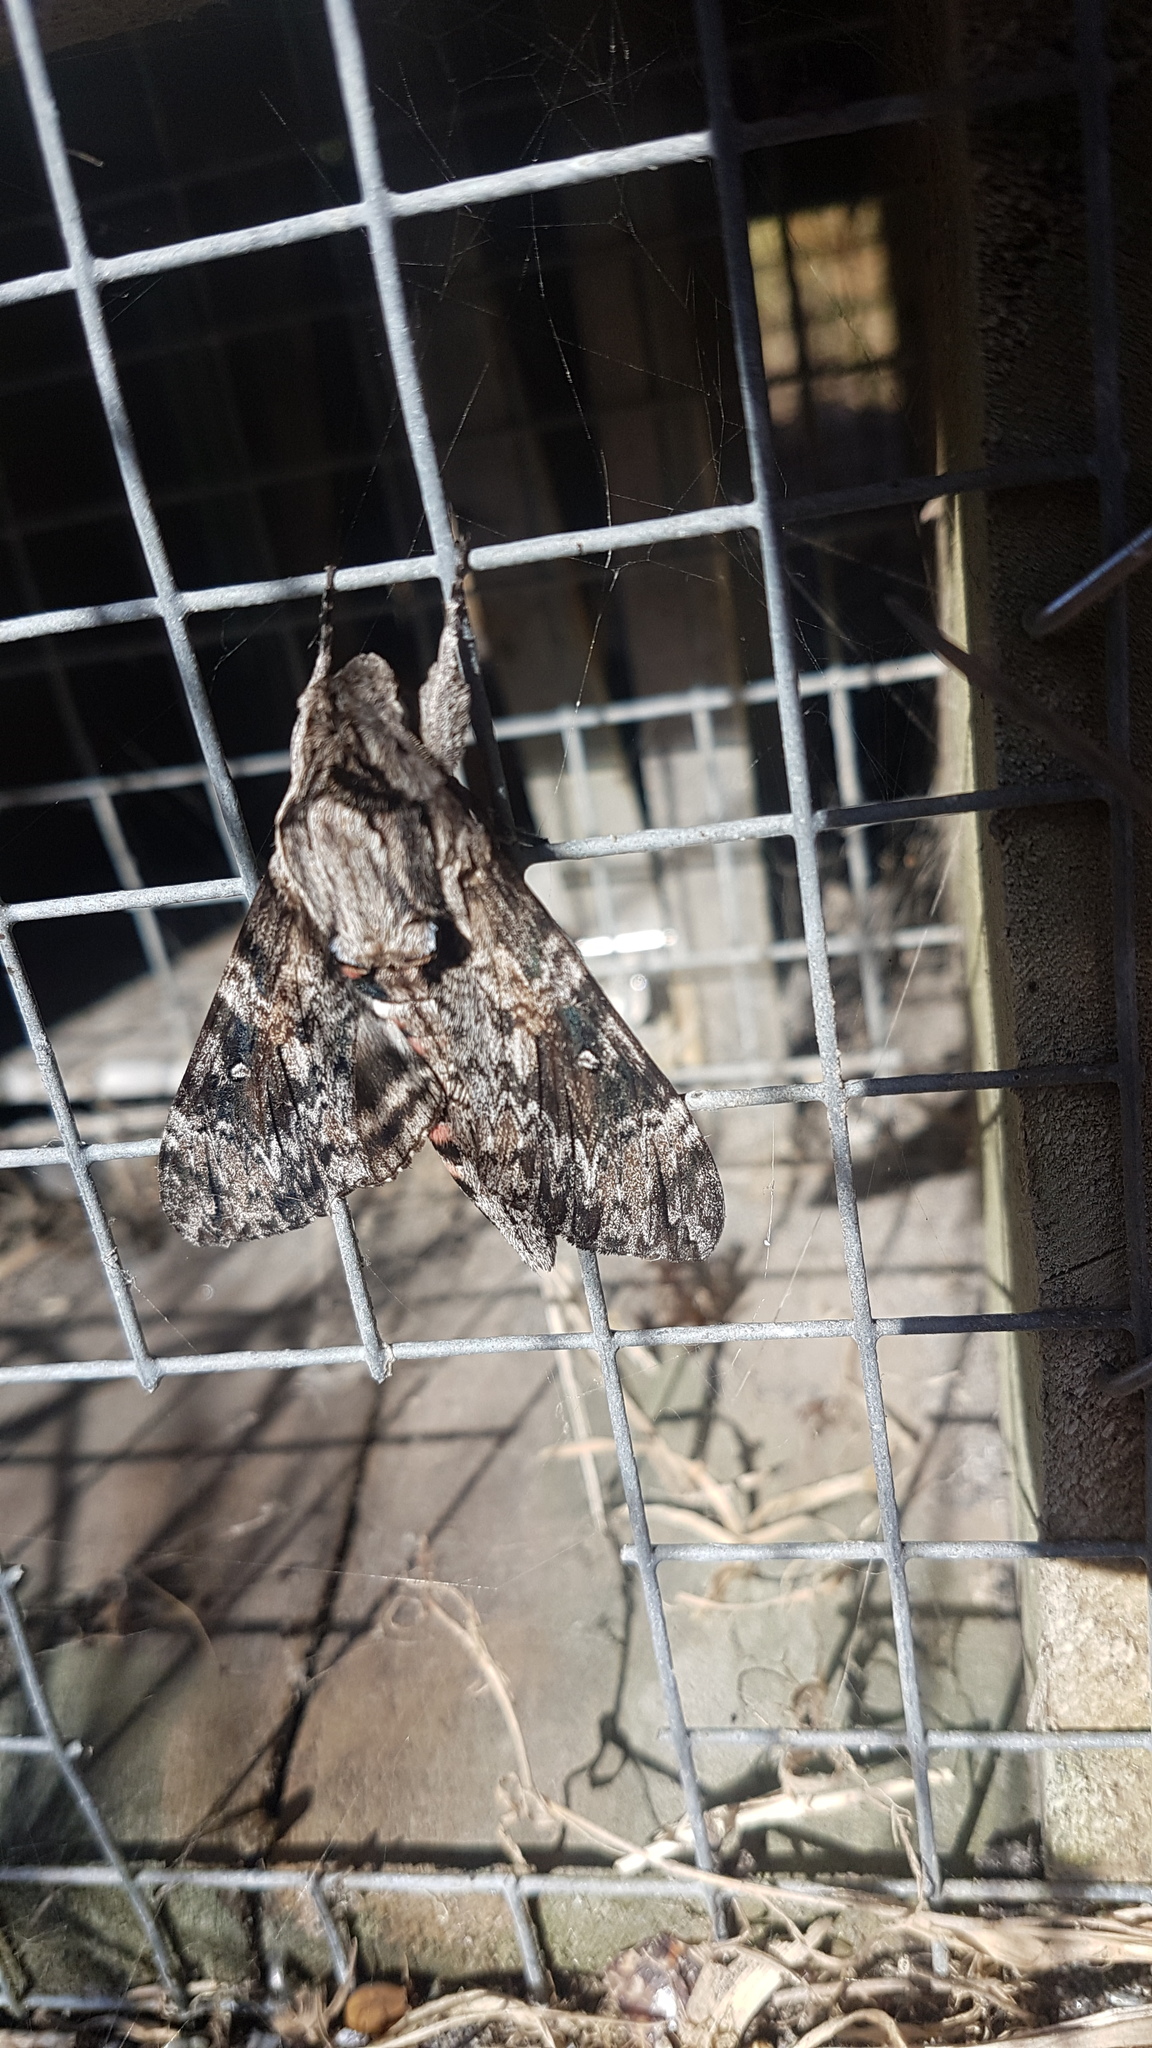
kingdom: Animalia
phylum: Arthropoda
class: Insecta
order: Lepidoptera
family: Sphingidae
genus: Agrius
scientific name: Agrius convolvuli
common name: Convolvulus hawkmoth
